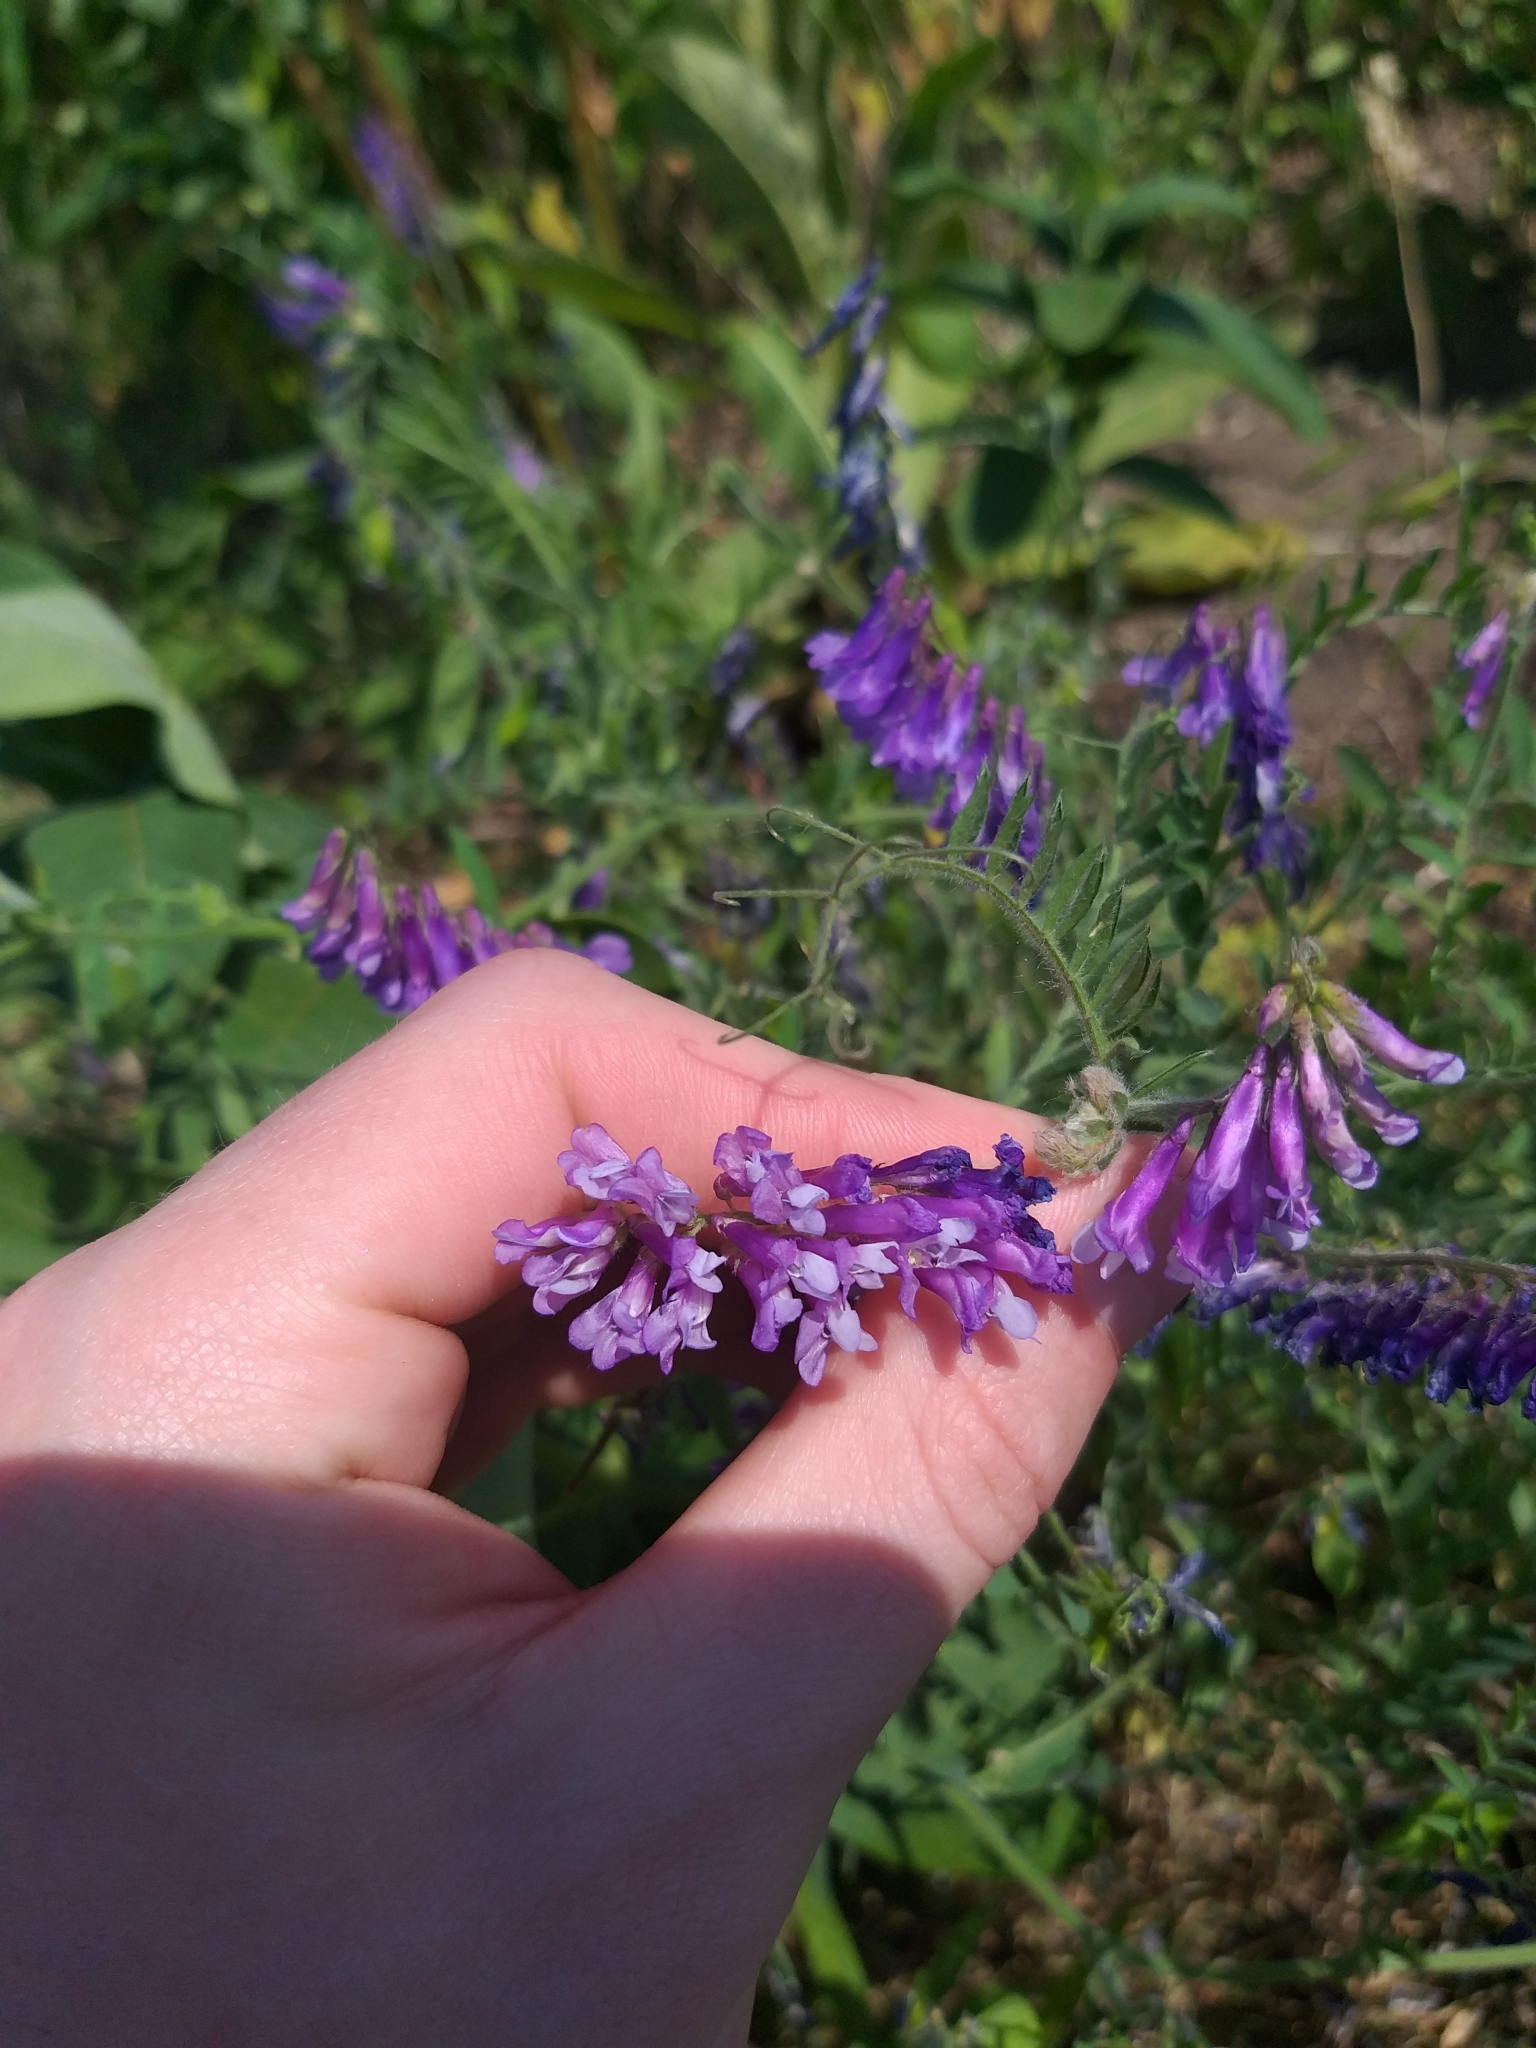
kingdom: Plantae
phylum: Tracheophyta
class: Magnoliopsida
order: Fabales
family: Fabaceae
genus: Vicia
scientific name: Vicia villosa
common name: Fodder vetch
